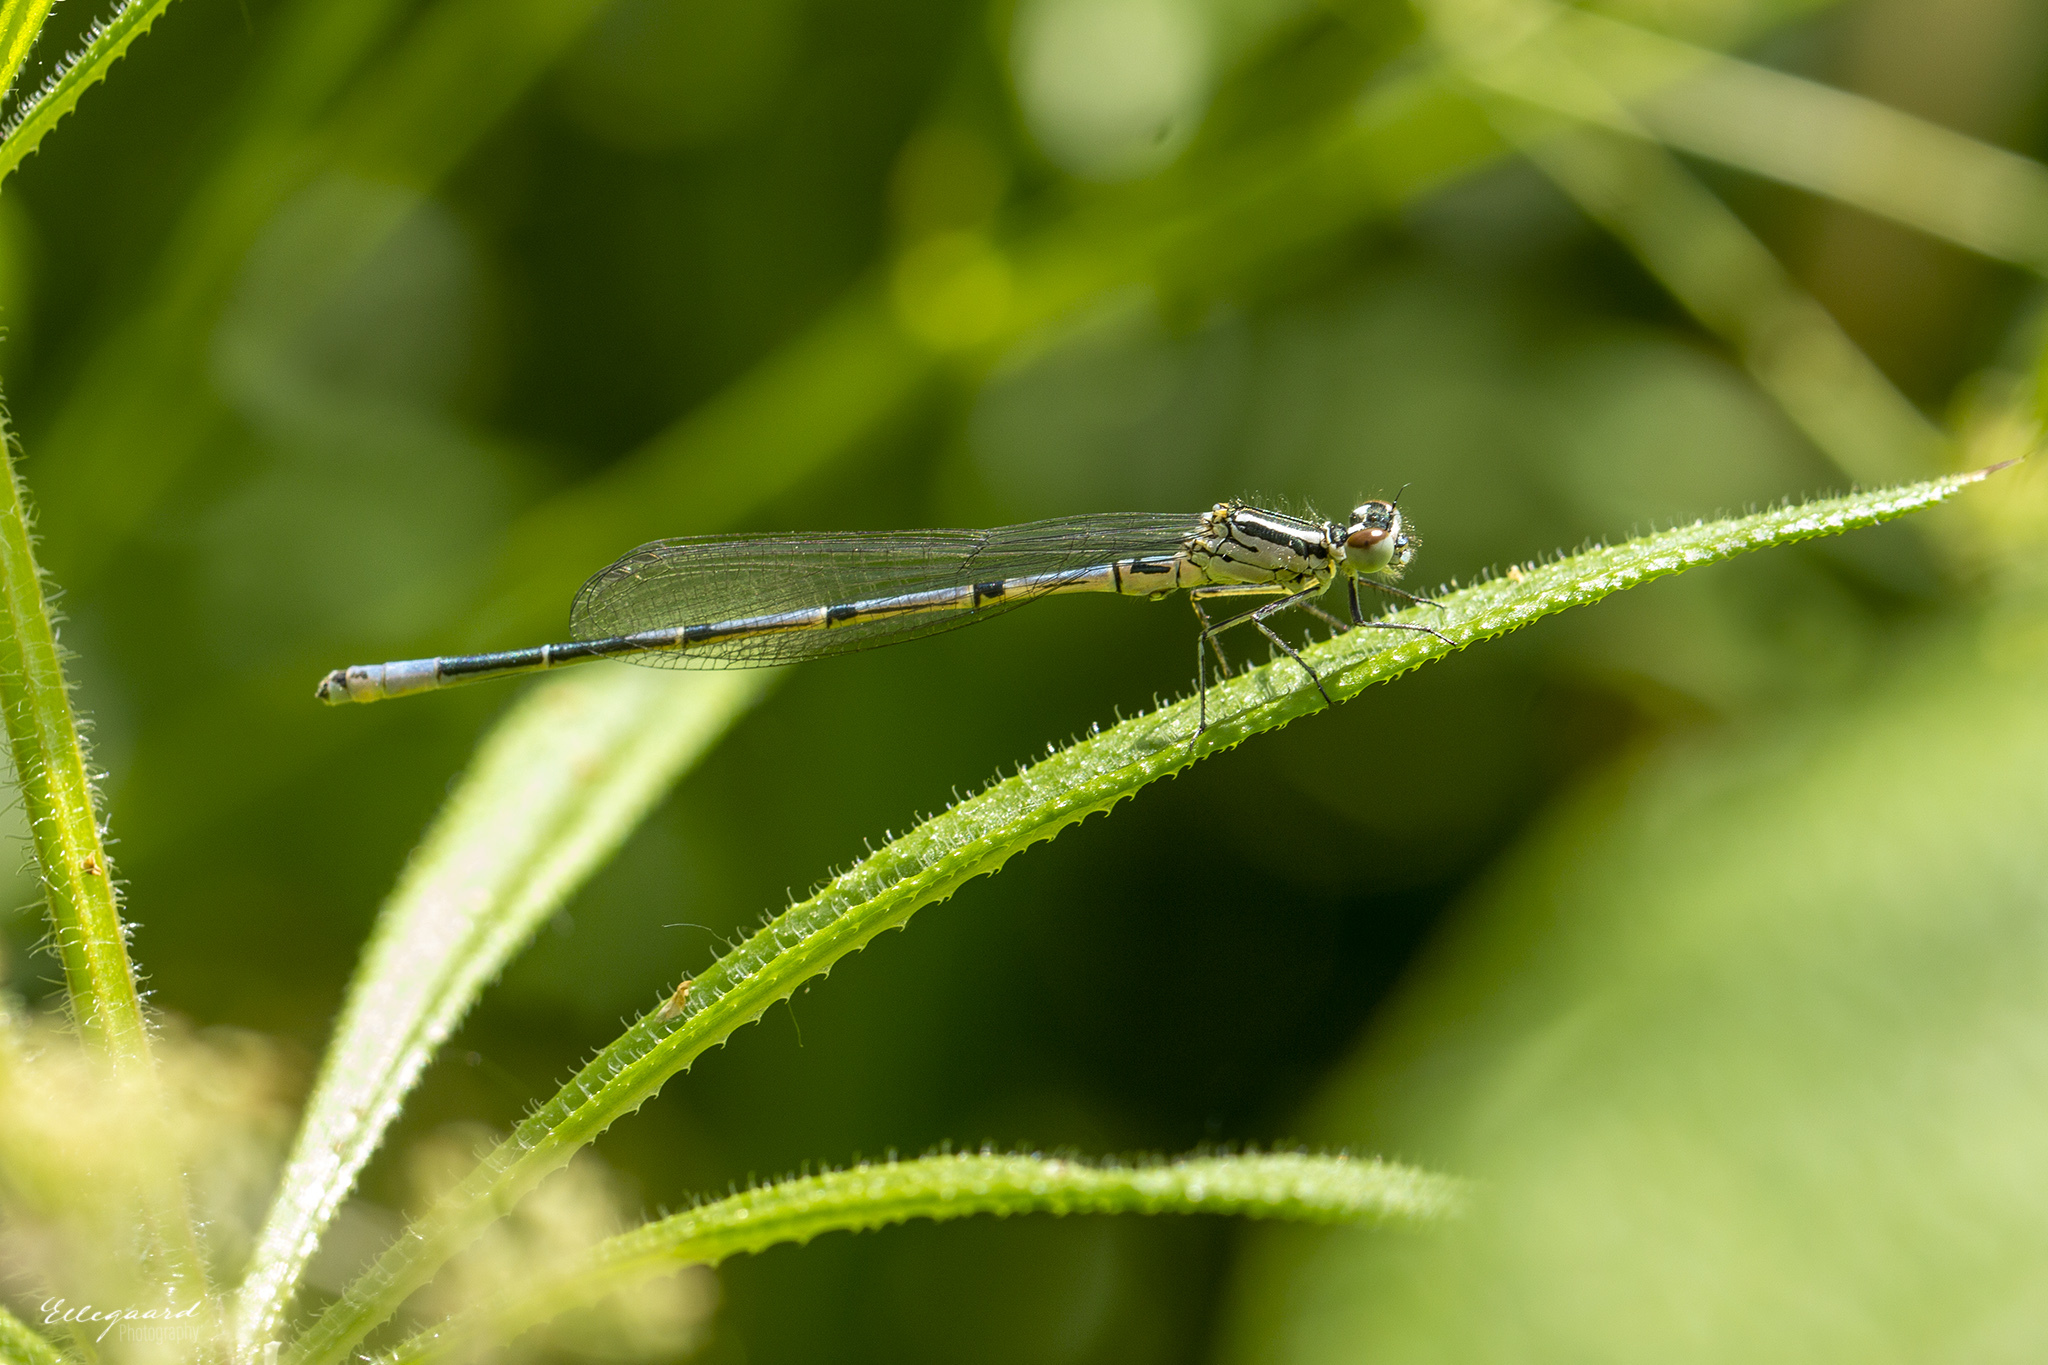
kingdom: Animalia
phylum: Arthropoda
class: Insecta
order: Odonata
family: Coenagrionidae
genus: Coenagrion
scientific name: Coenagrion puella
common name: Azure damselfly
